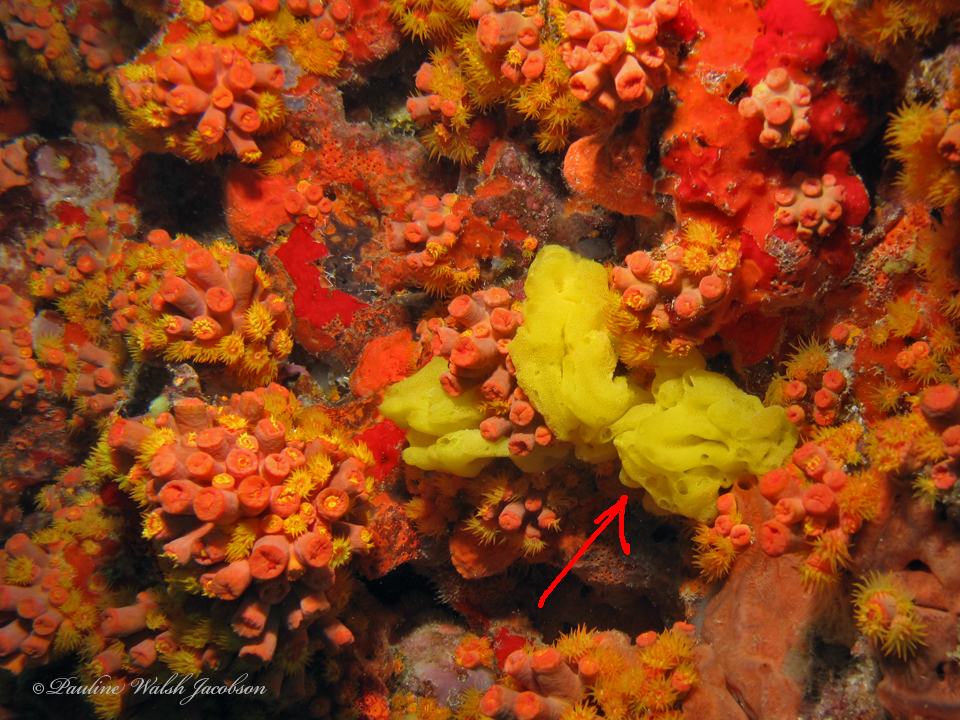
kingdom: Animalia
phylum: Porifera
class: Calcarea
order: Clathrinida
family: Clathrinidae
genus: Clathrina
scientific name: Clathrina lutea
